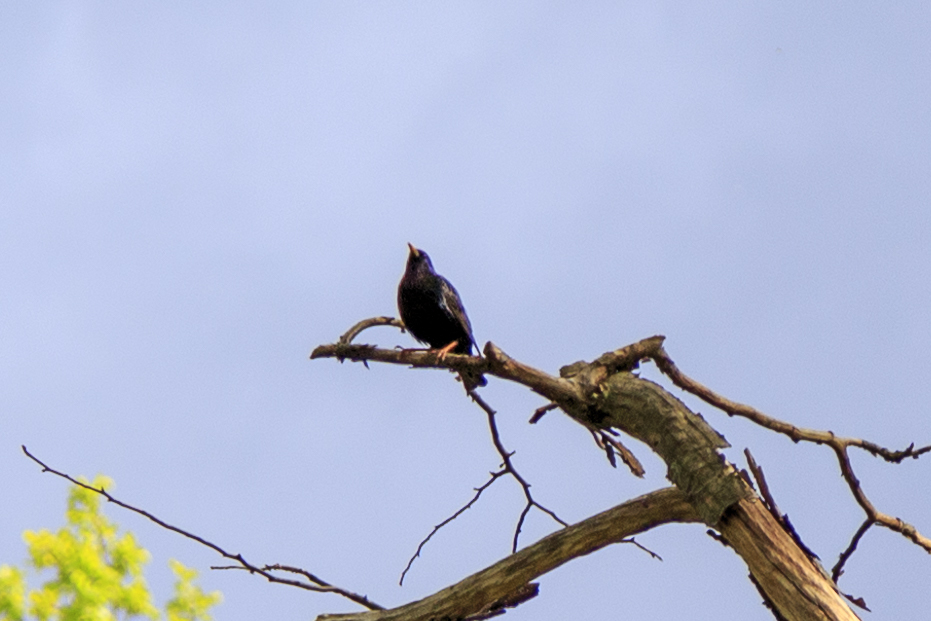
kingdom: Animalia
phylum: Chordata
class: Aves
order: Passeriformes
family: Sturnidae
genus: Sturnus
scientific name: Sturnus vulgaris
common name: Common starling
